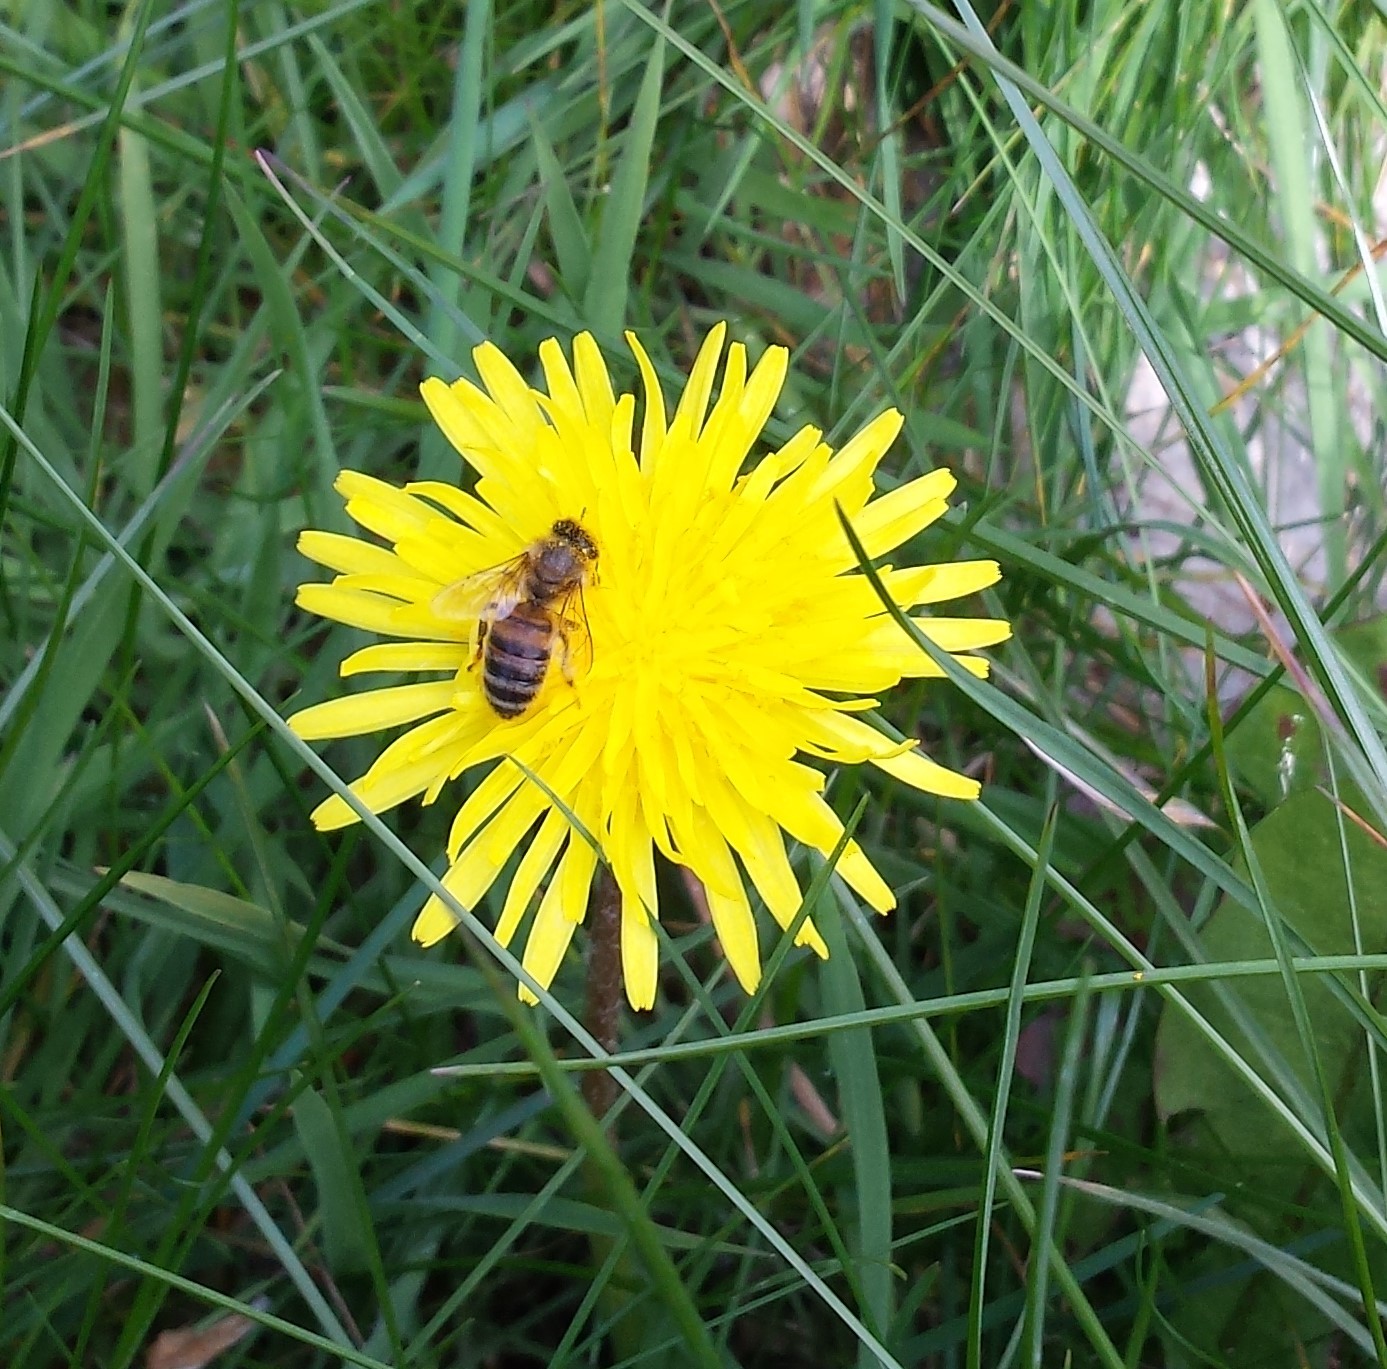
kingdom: Animalia
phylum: Arthropoda
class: Insecta
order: Hymenoptera
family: Apidae
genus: Apis
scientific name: Apis mellifera
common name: Honey bee
